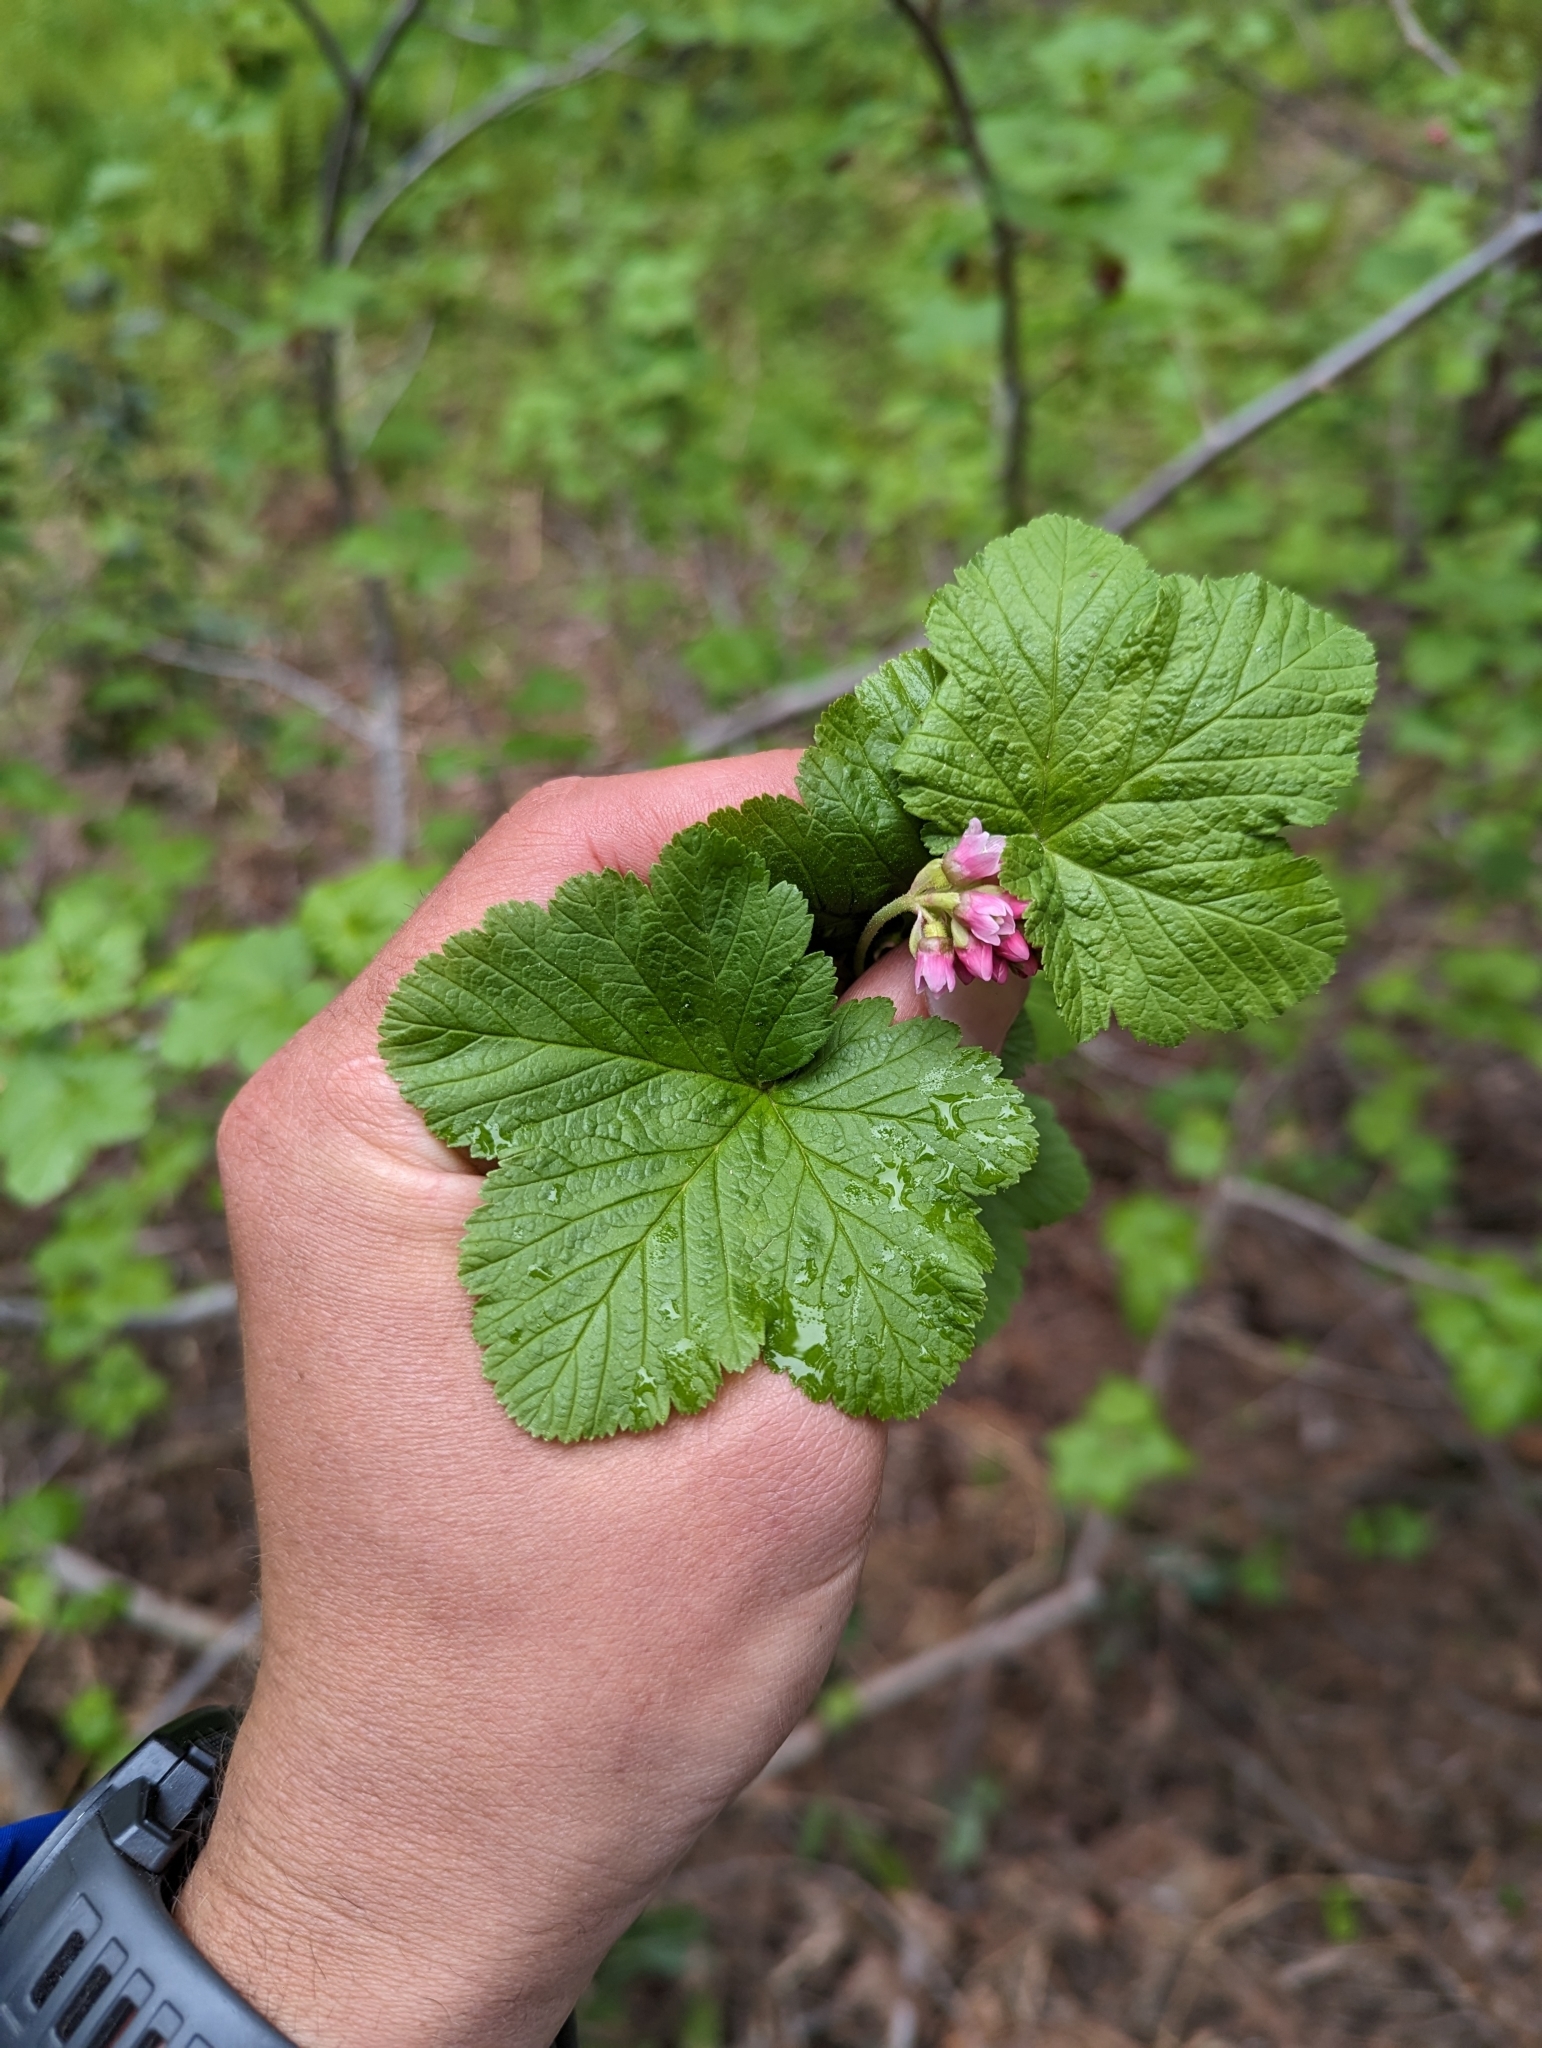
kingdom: Plantae
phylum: Tracheophyta
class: Magnoliopsida
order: Saxifragales
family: Grossulariaceae
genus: Ribes
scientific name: Ribes nevadense
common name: Mountain pink currant
